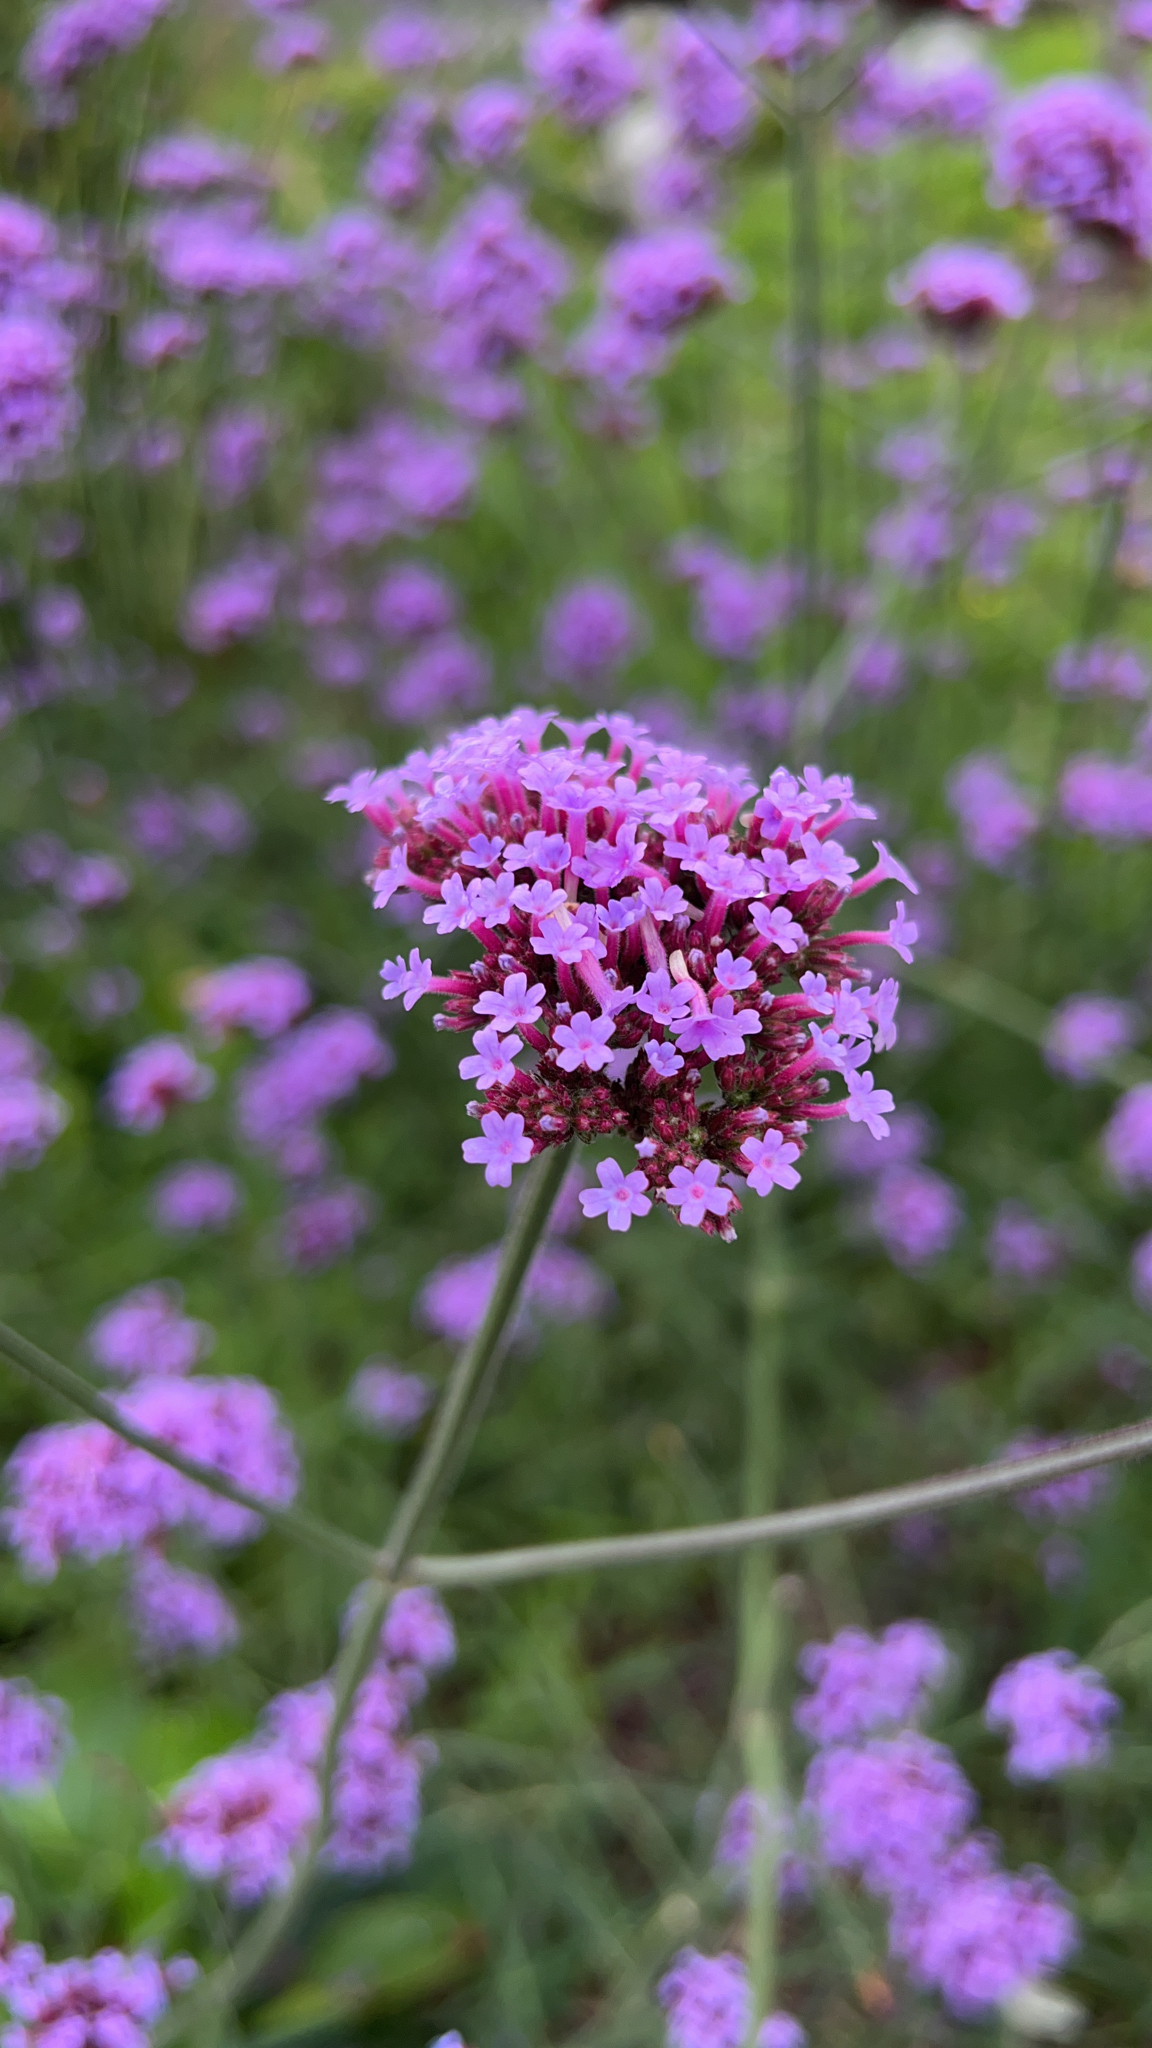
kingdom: Plantae
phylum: Tracheophyta
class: Magnoliopsida
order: Lamiales
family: Verbenaceae
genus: Verbena
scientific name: Verbena bonariensis
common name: Purpletop vervain
